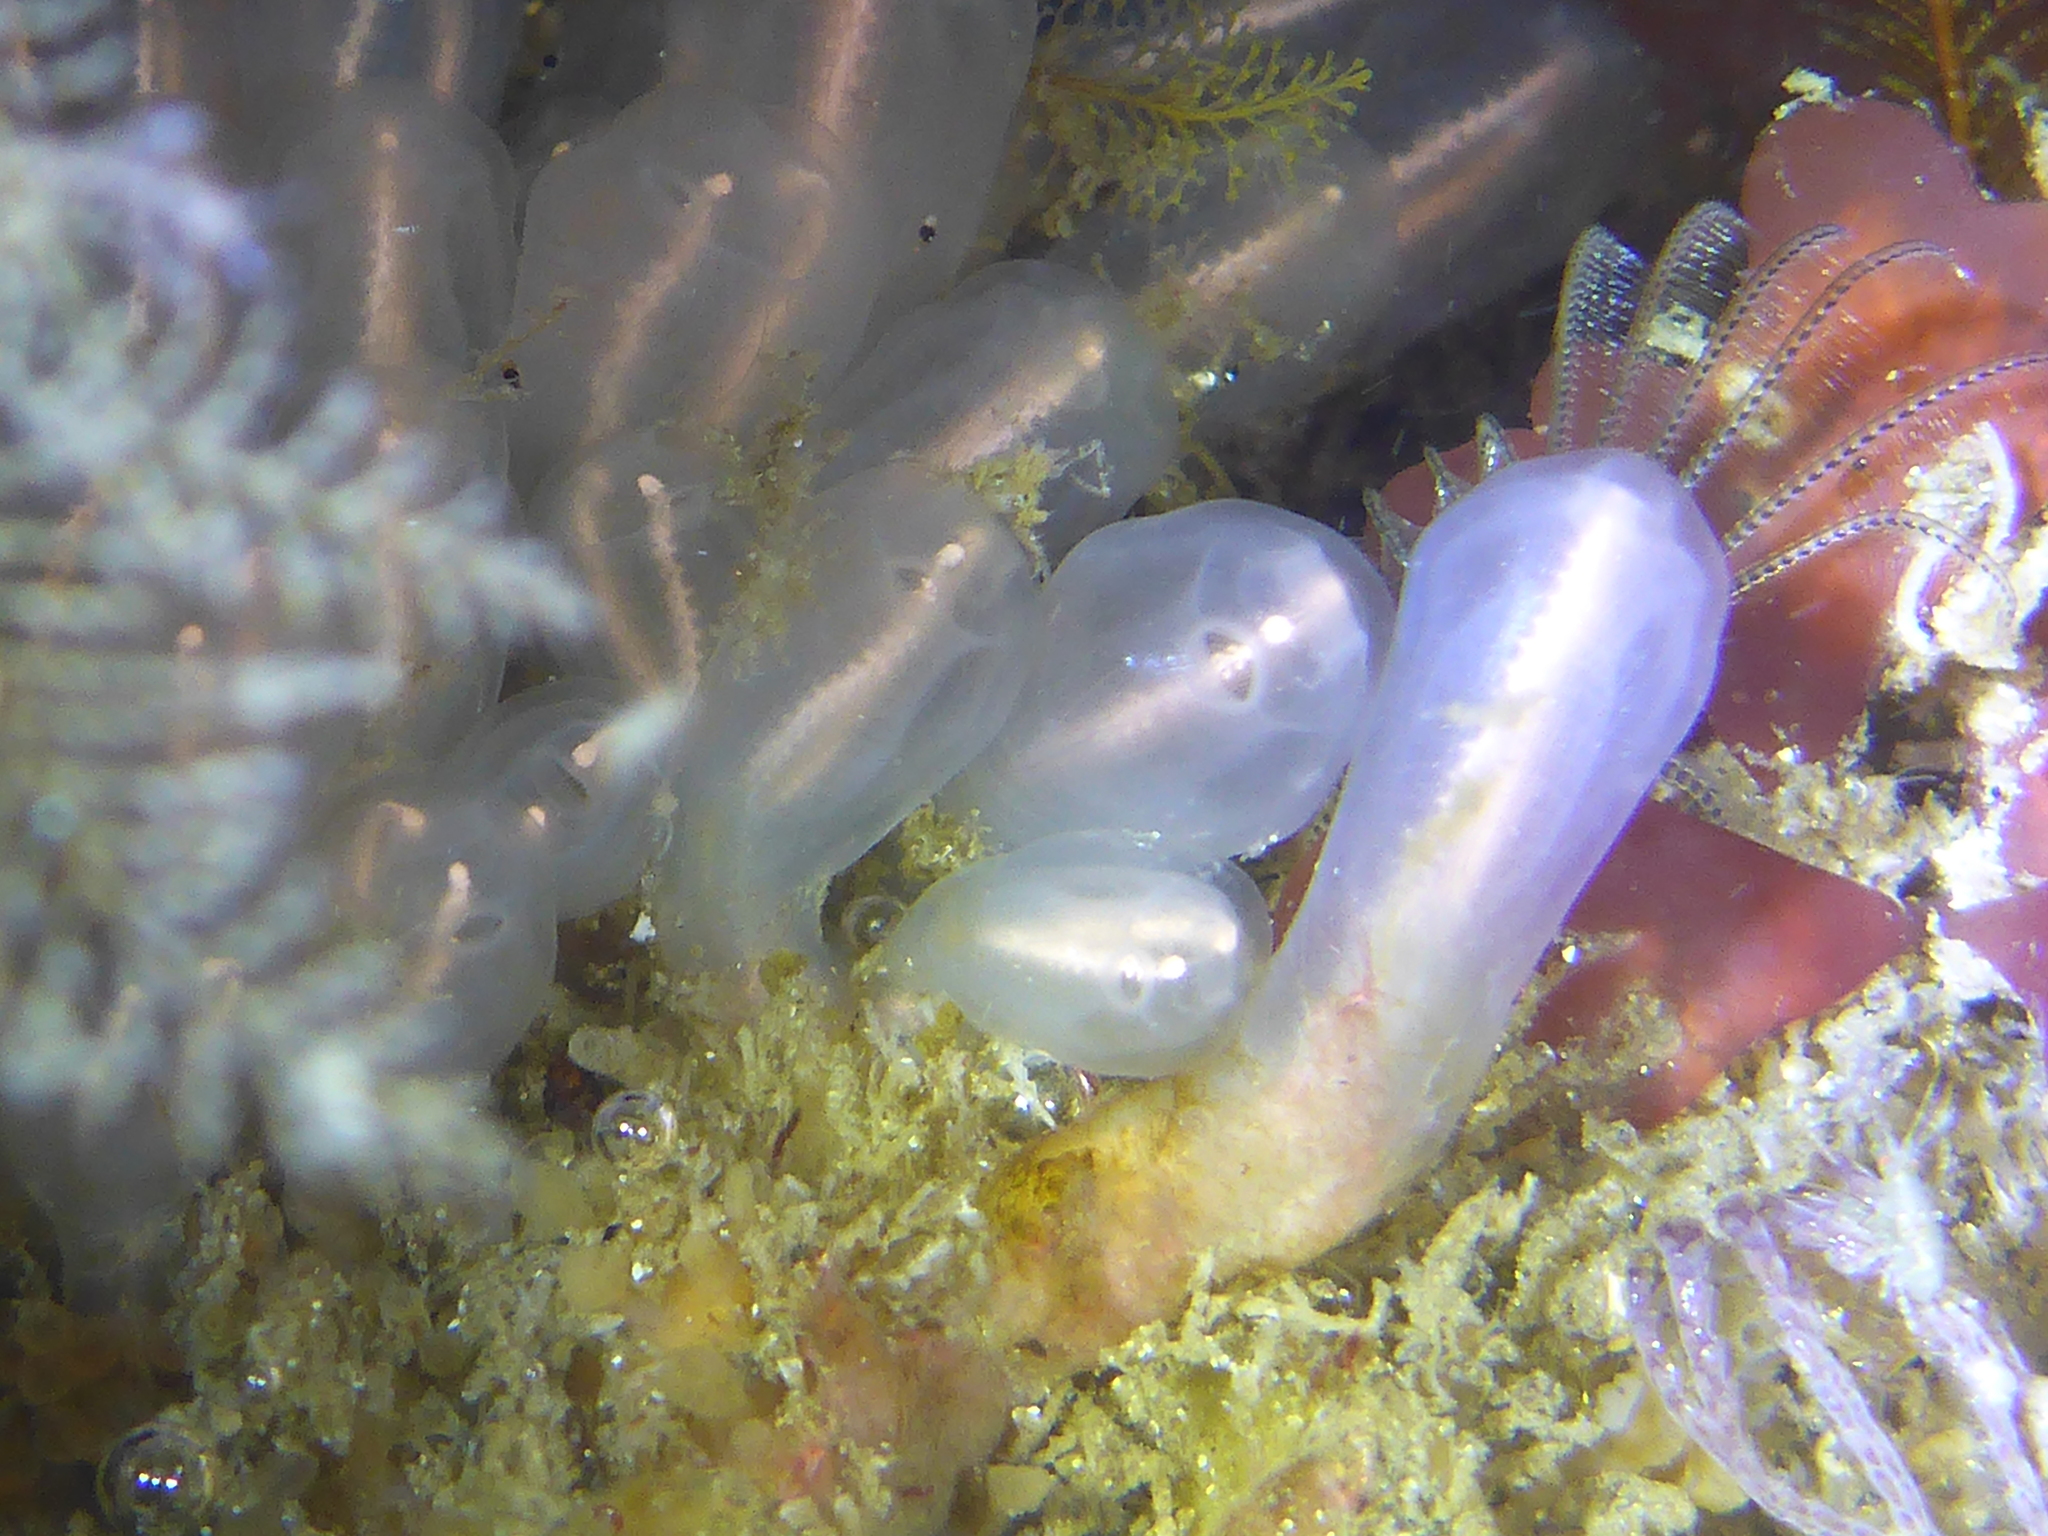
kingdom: Animalia
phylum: Chordata
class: Ascidiacea
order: Aplousobranchia
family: Clavelinidae
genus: Clavelina
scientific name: Clavelina huntsmani
